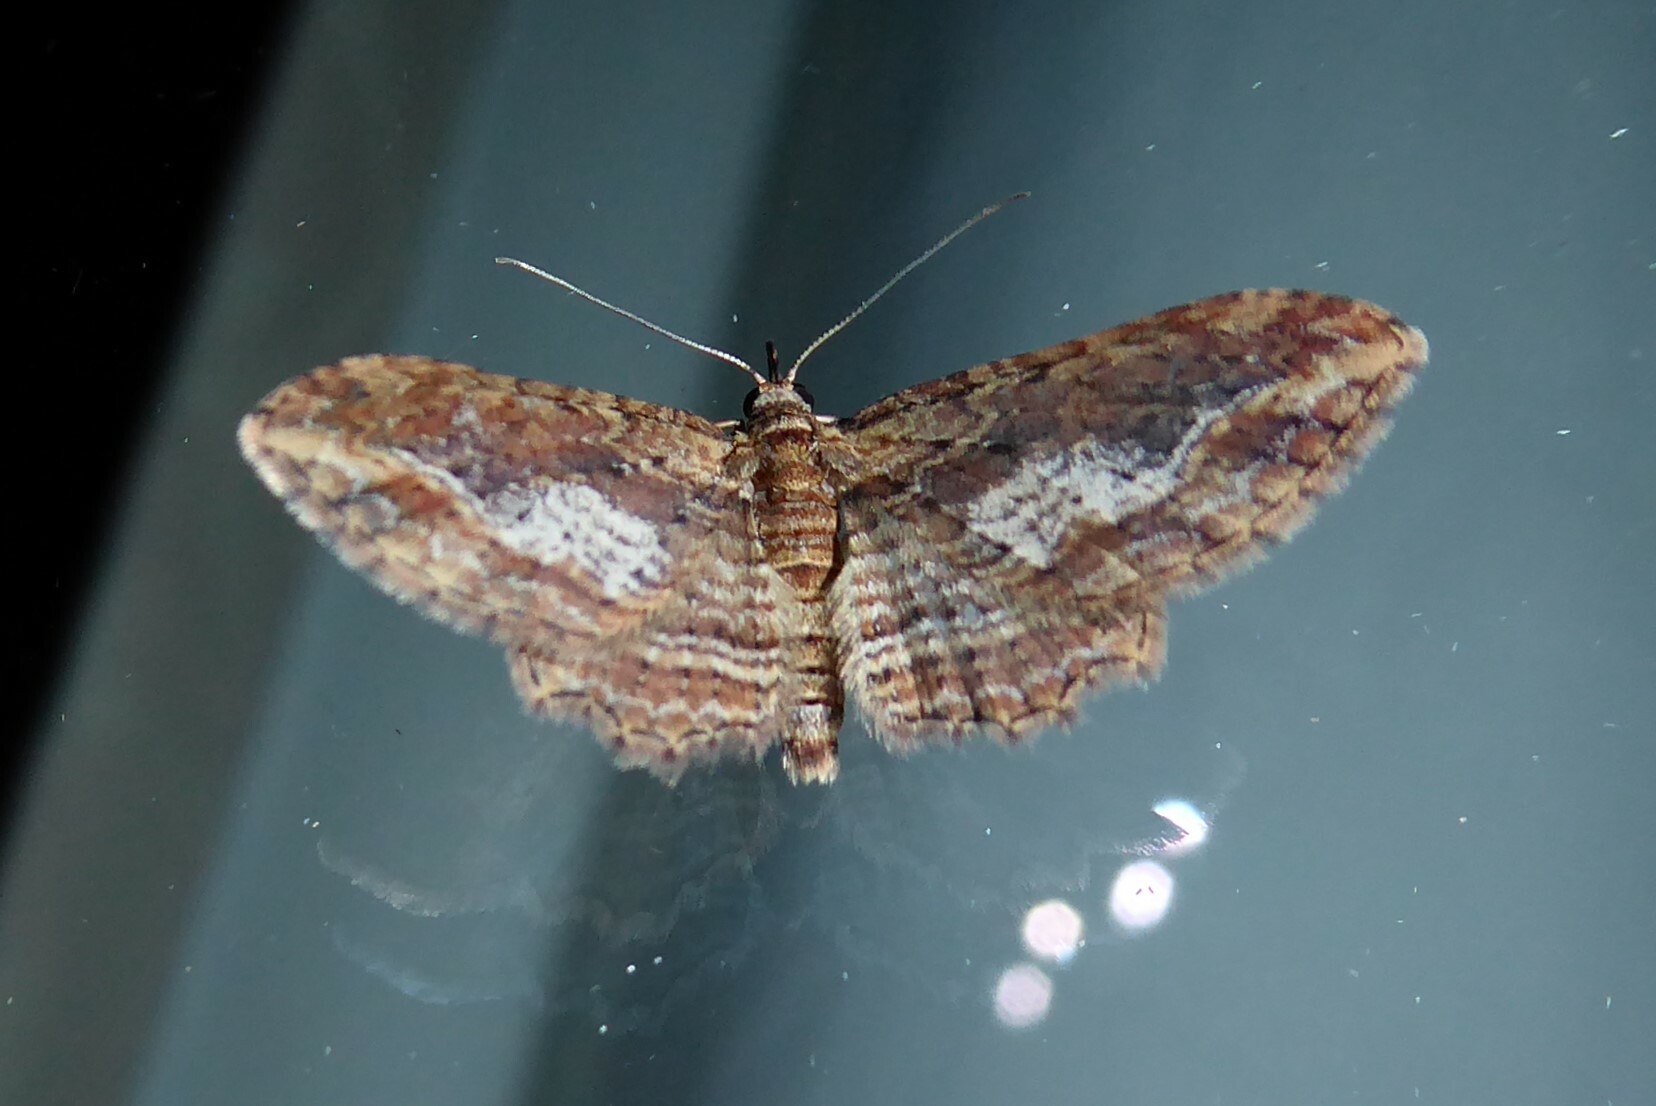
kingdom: Animalia
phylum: Arthropoda
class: Insecta
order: Lepidoptera
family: Geometridae
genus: Chloroclystis
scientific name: Chloroclystis filata
